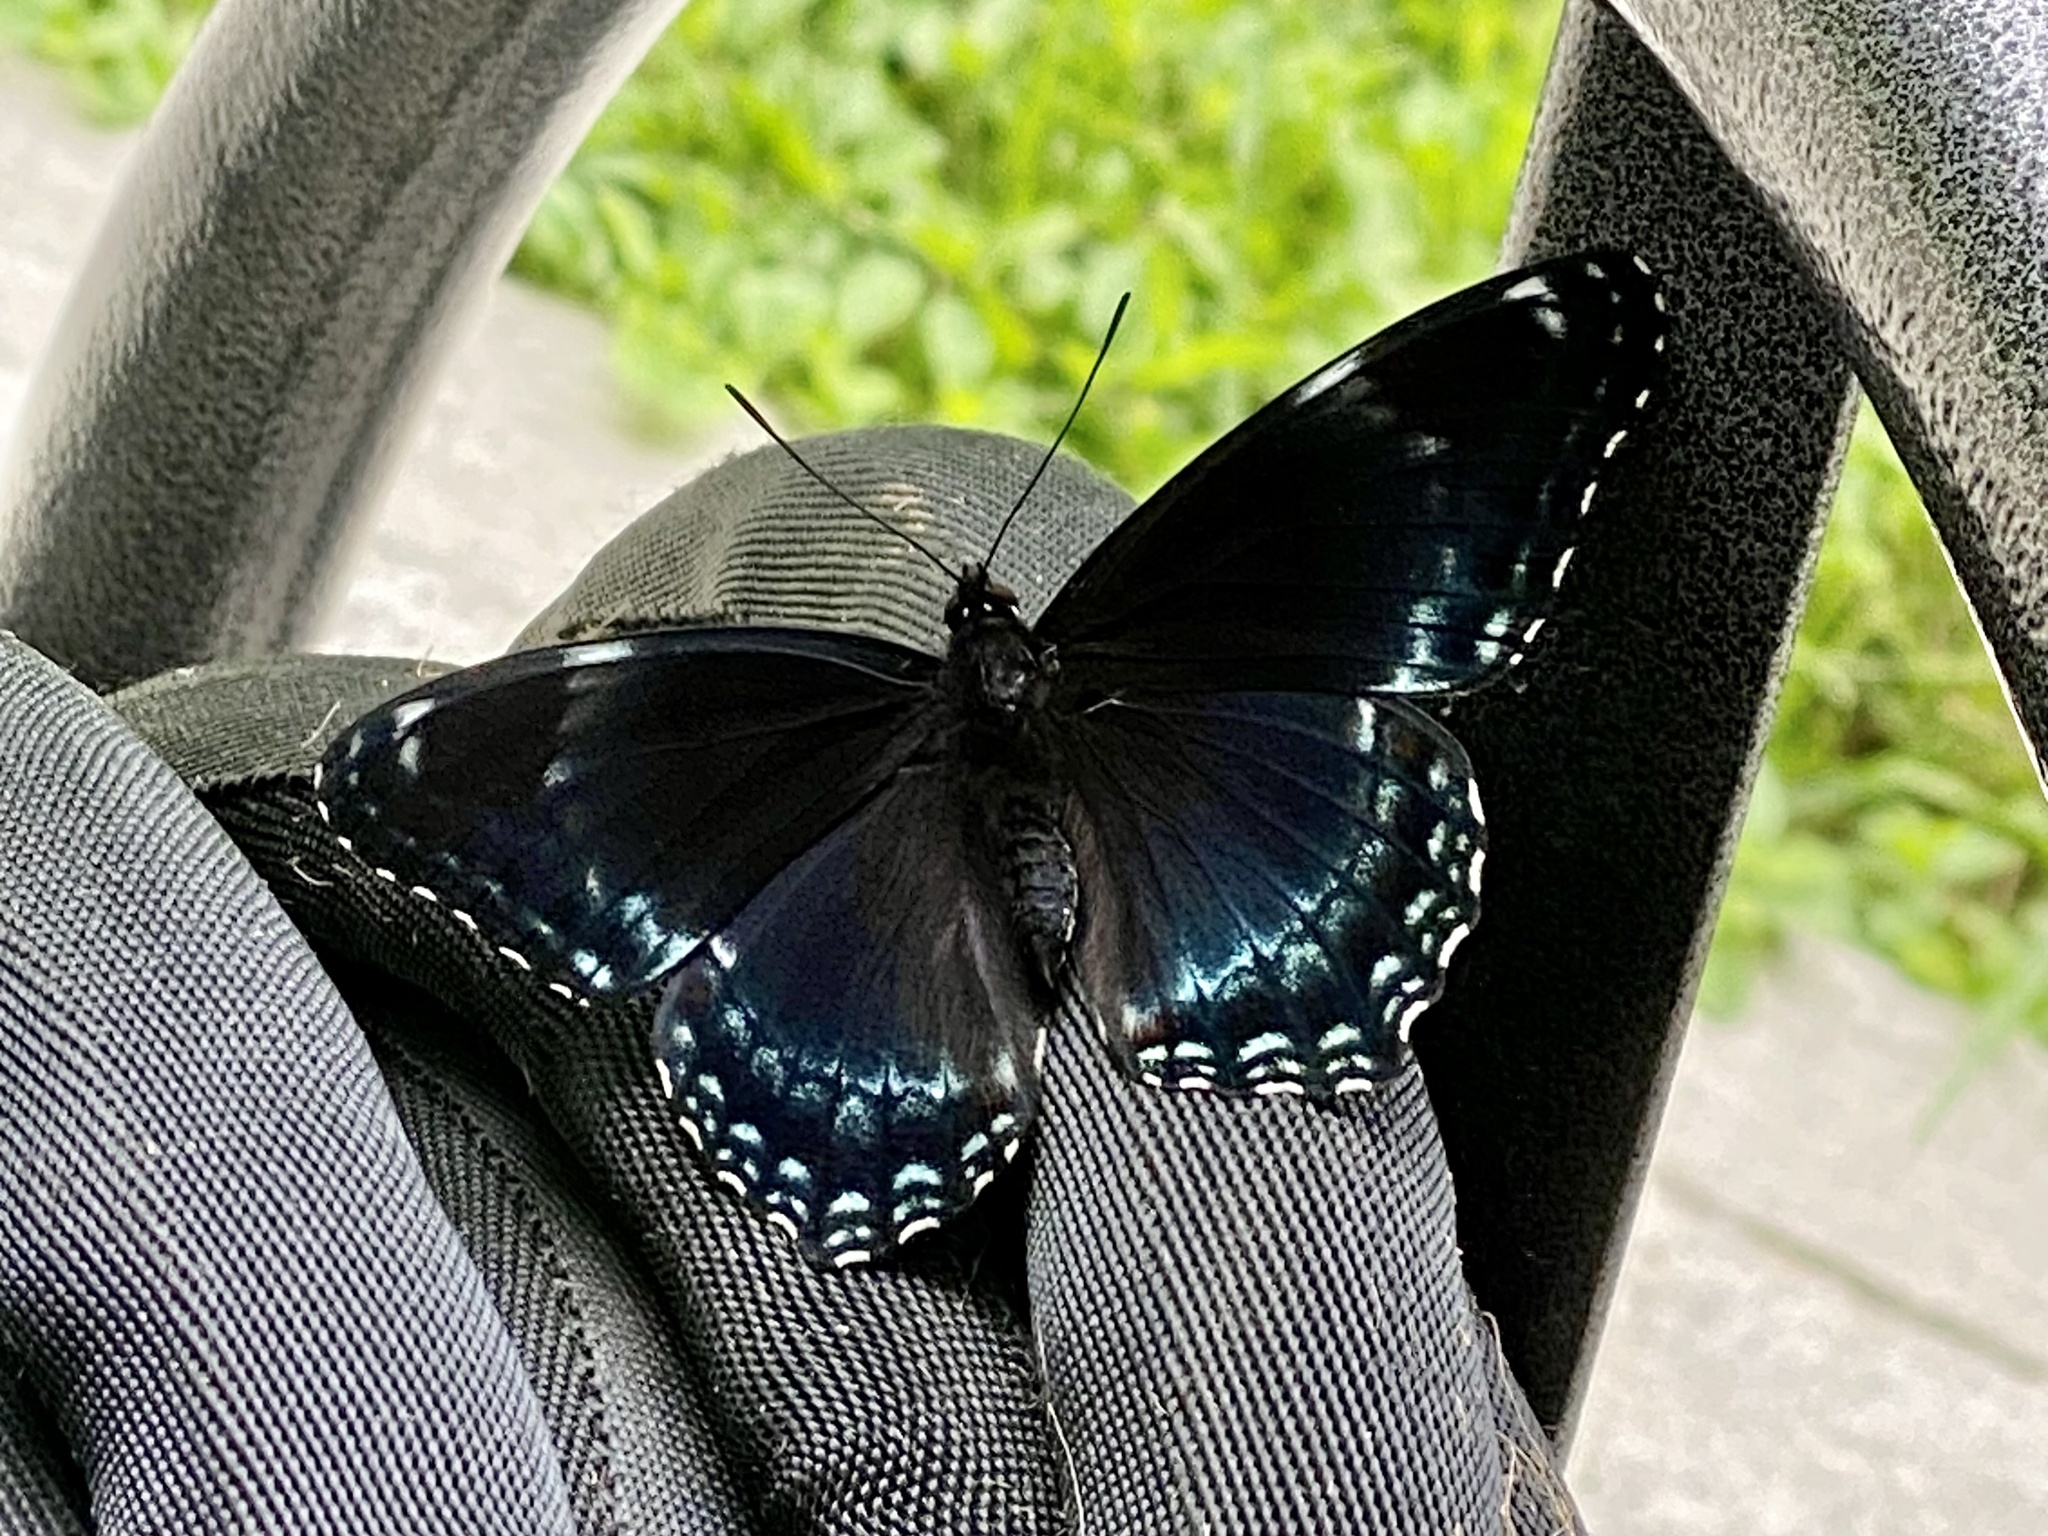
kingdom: Animalia
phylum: Arthropoda
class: Insecta
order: Lepidoptera
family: Nymphalidae
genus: Limenitis
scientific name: Limenitis
